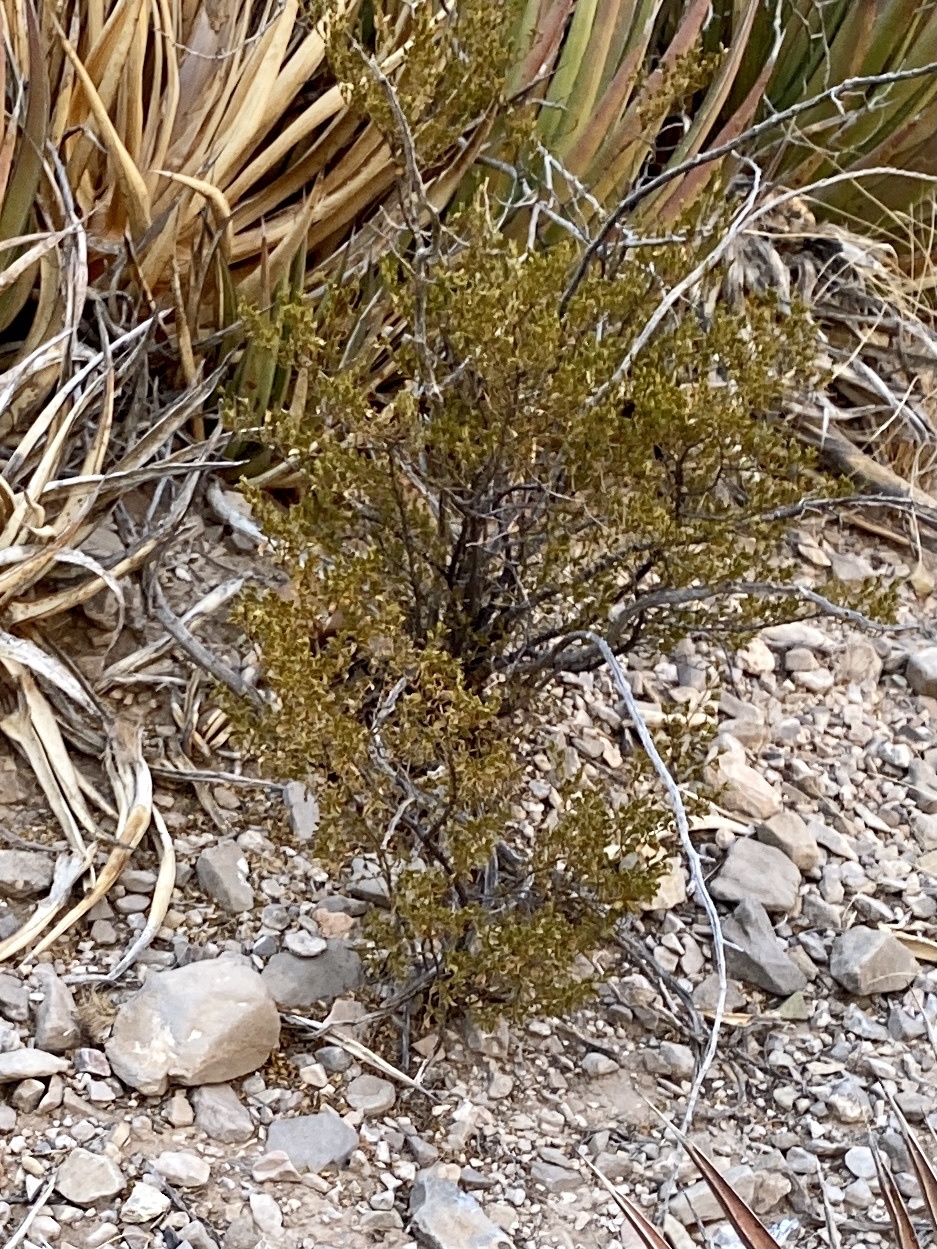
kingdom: Plantae
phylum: Tracheophyta
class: Magnoliopsida
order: Zygophyllales
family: Zygophyllaceae
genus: Larrea
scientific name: Larrea tridentata
